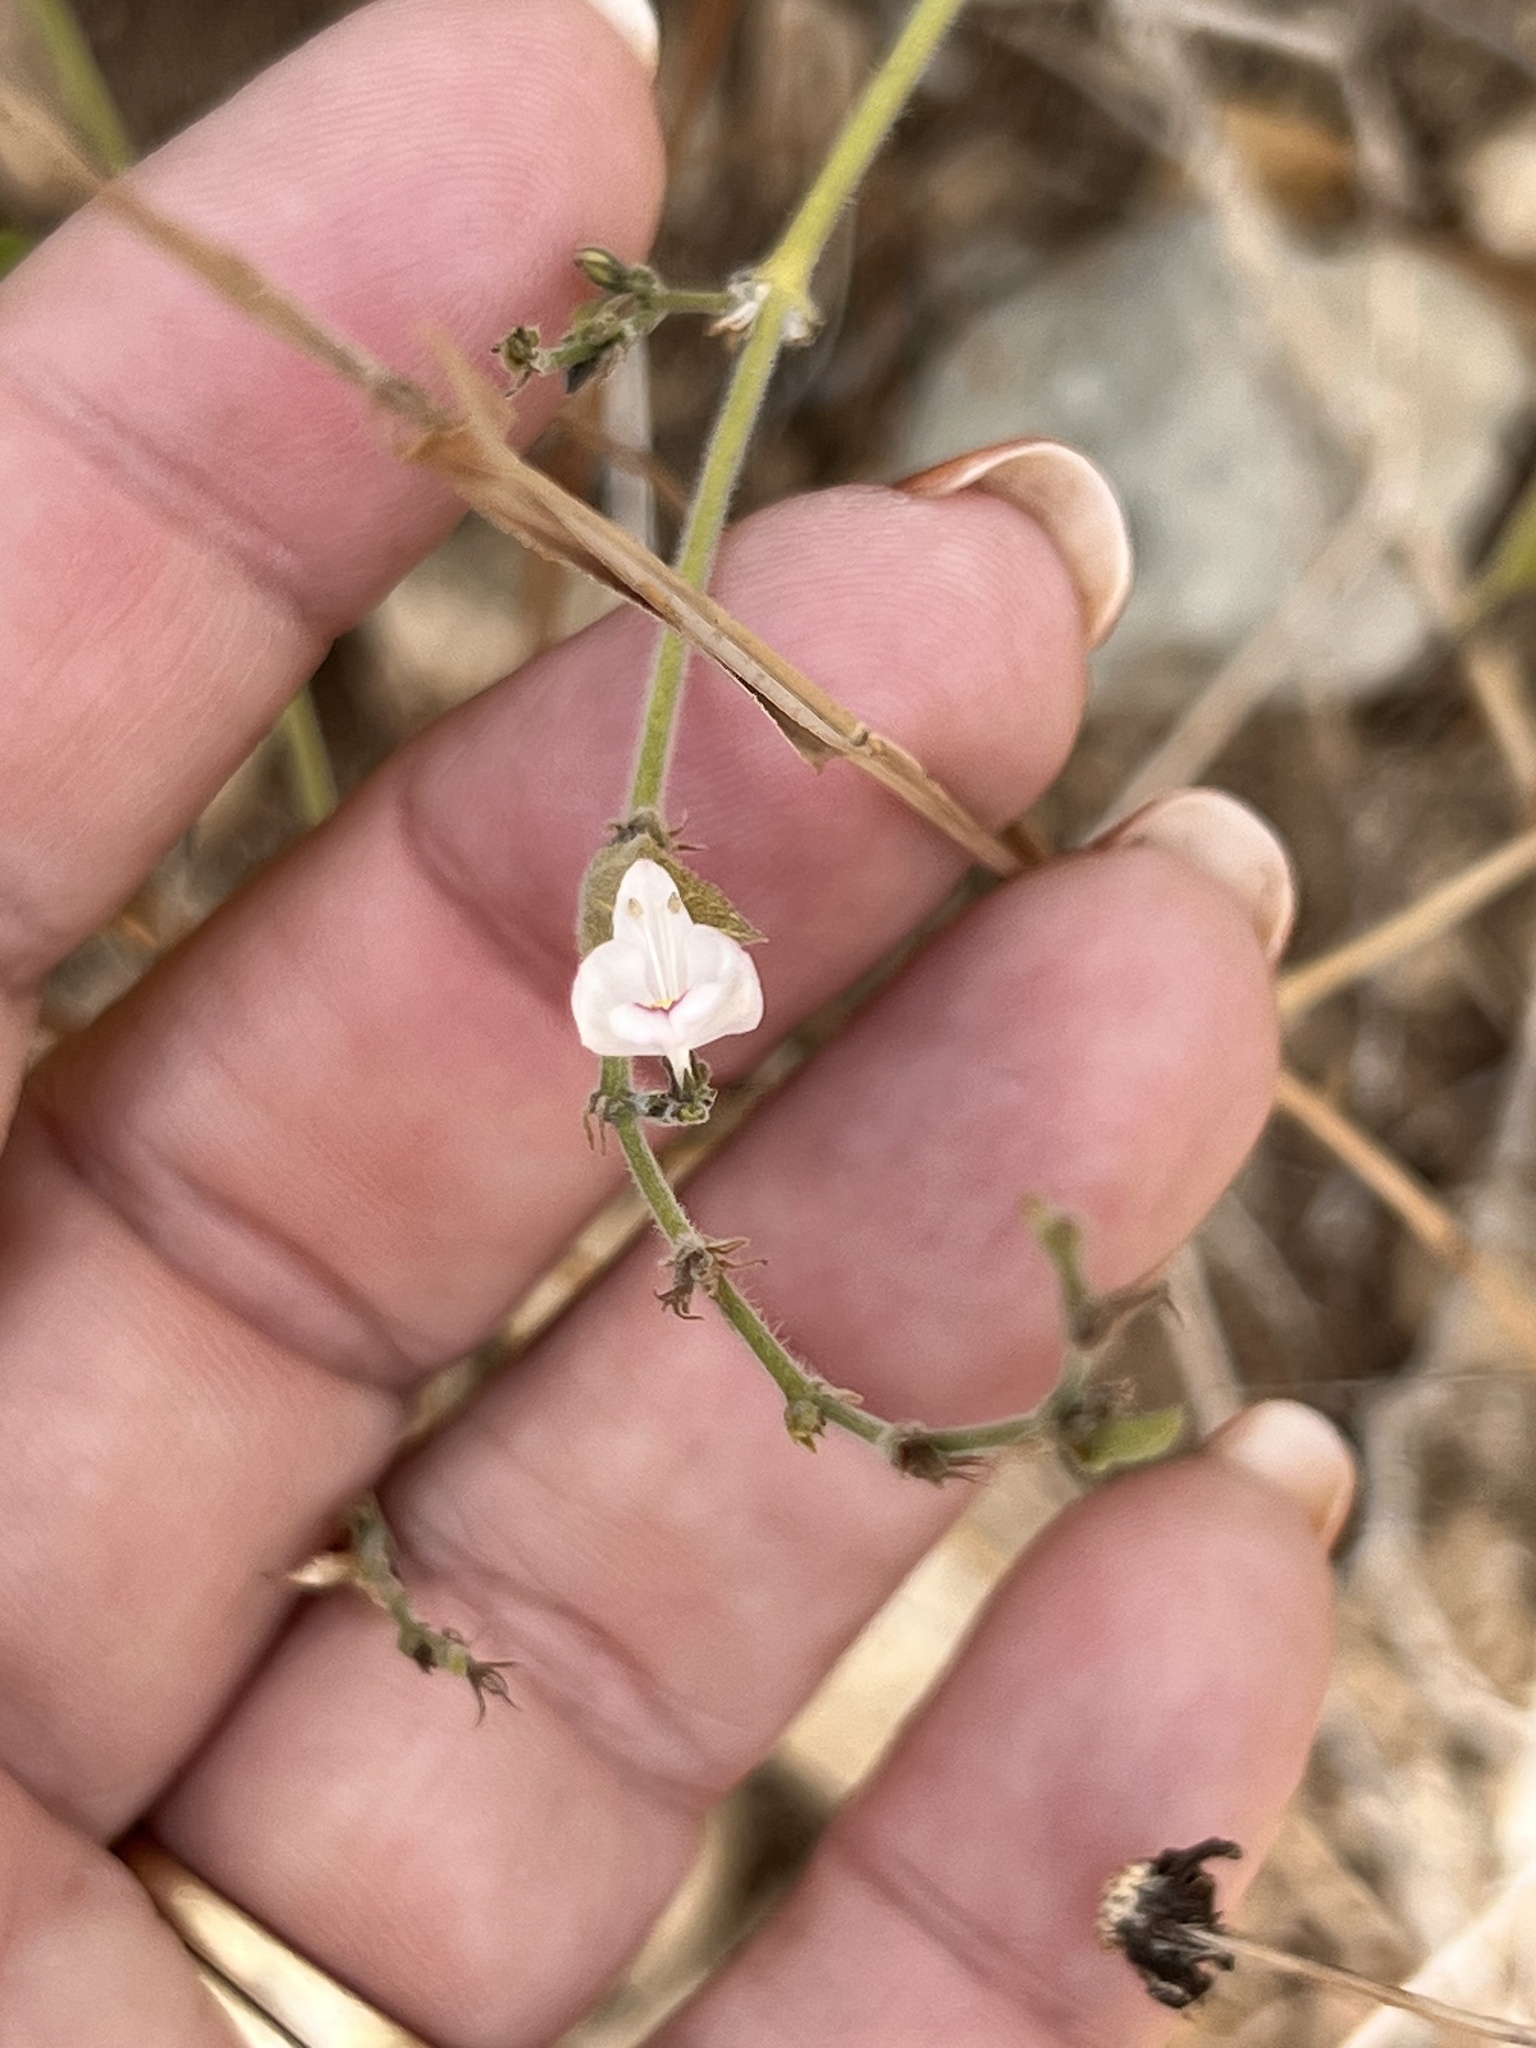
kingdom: Plantae
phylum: Tracheophyta
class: Magnoliopsida
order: Lamiales
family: Acanthaceae
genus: Carlowrightia
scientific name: Carlowrightia torreyana
